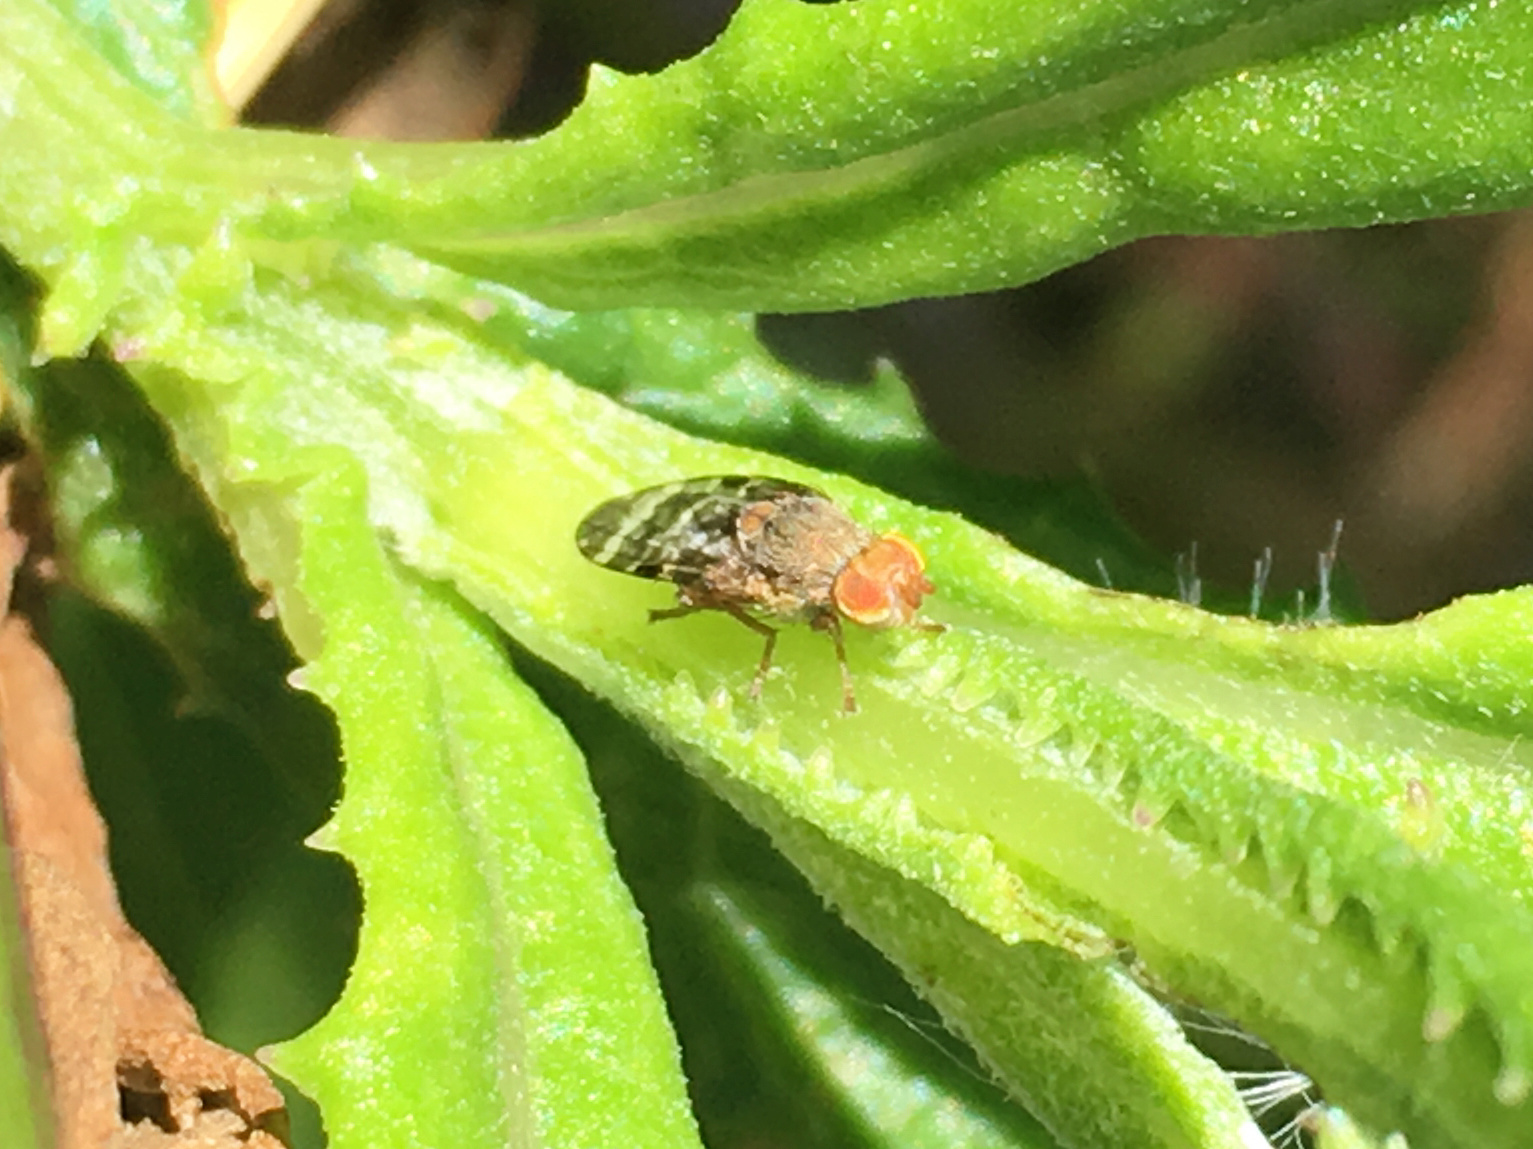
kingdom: Animalia
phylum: Arthropoda
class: Insecta
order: Diptera
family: Tephritidae
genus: Sphenella
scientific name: Sphenella
